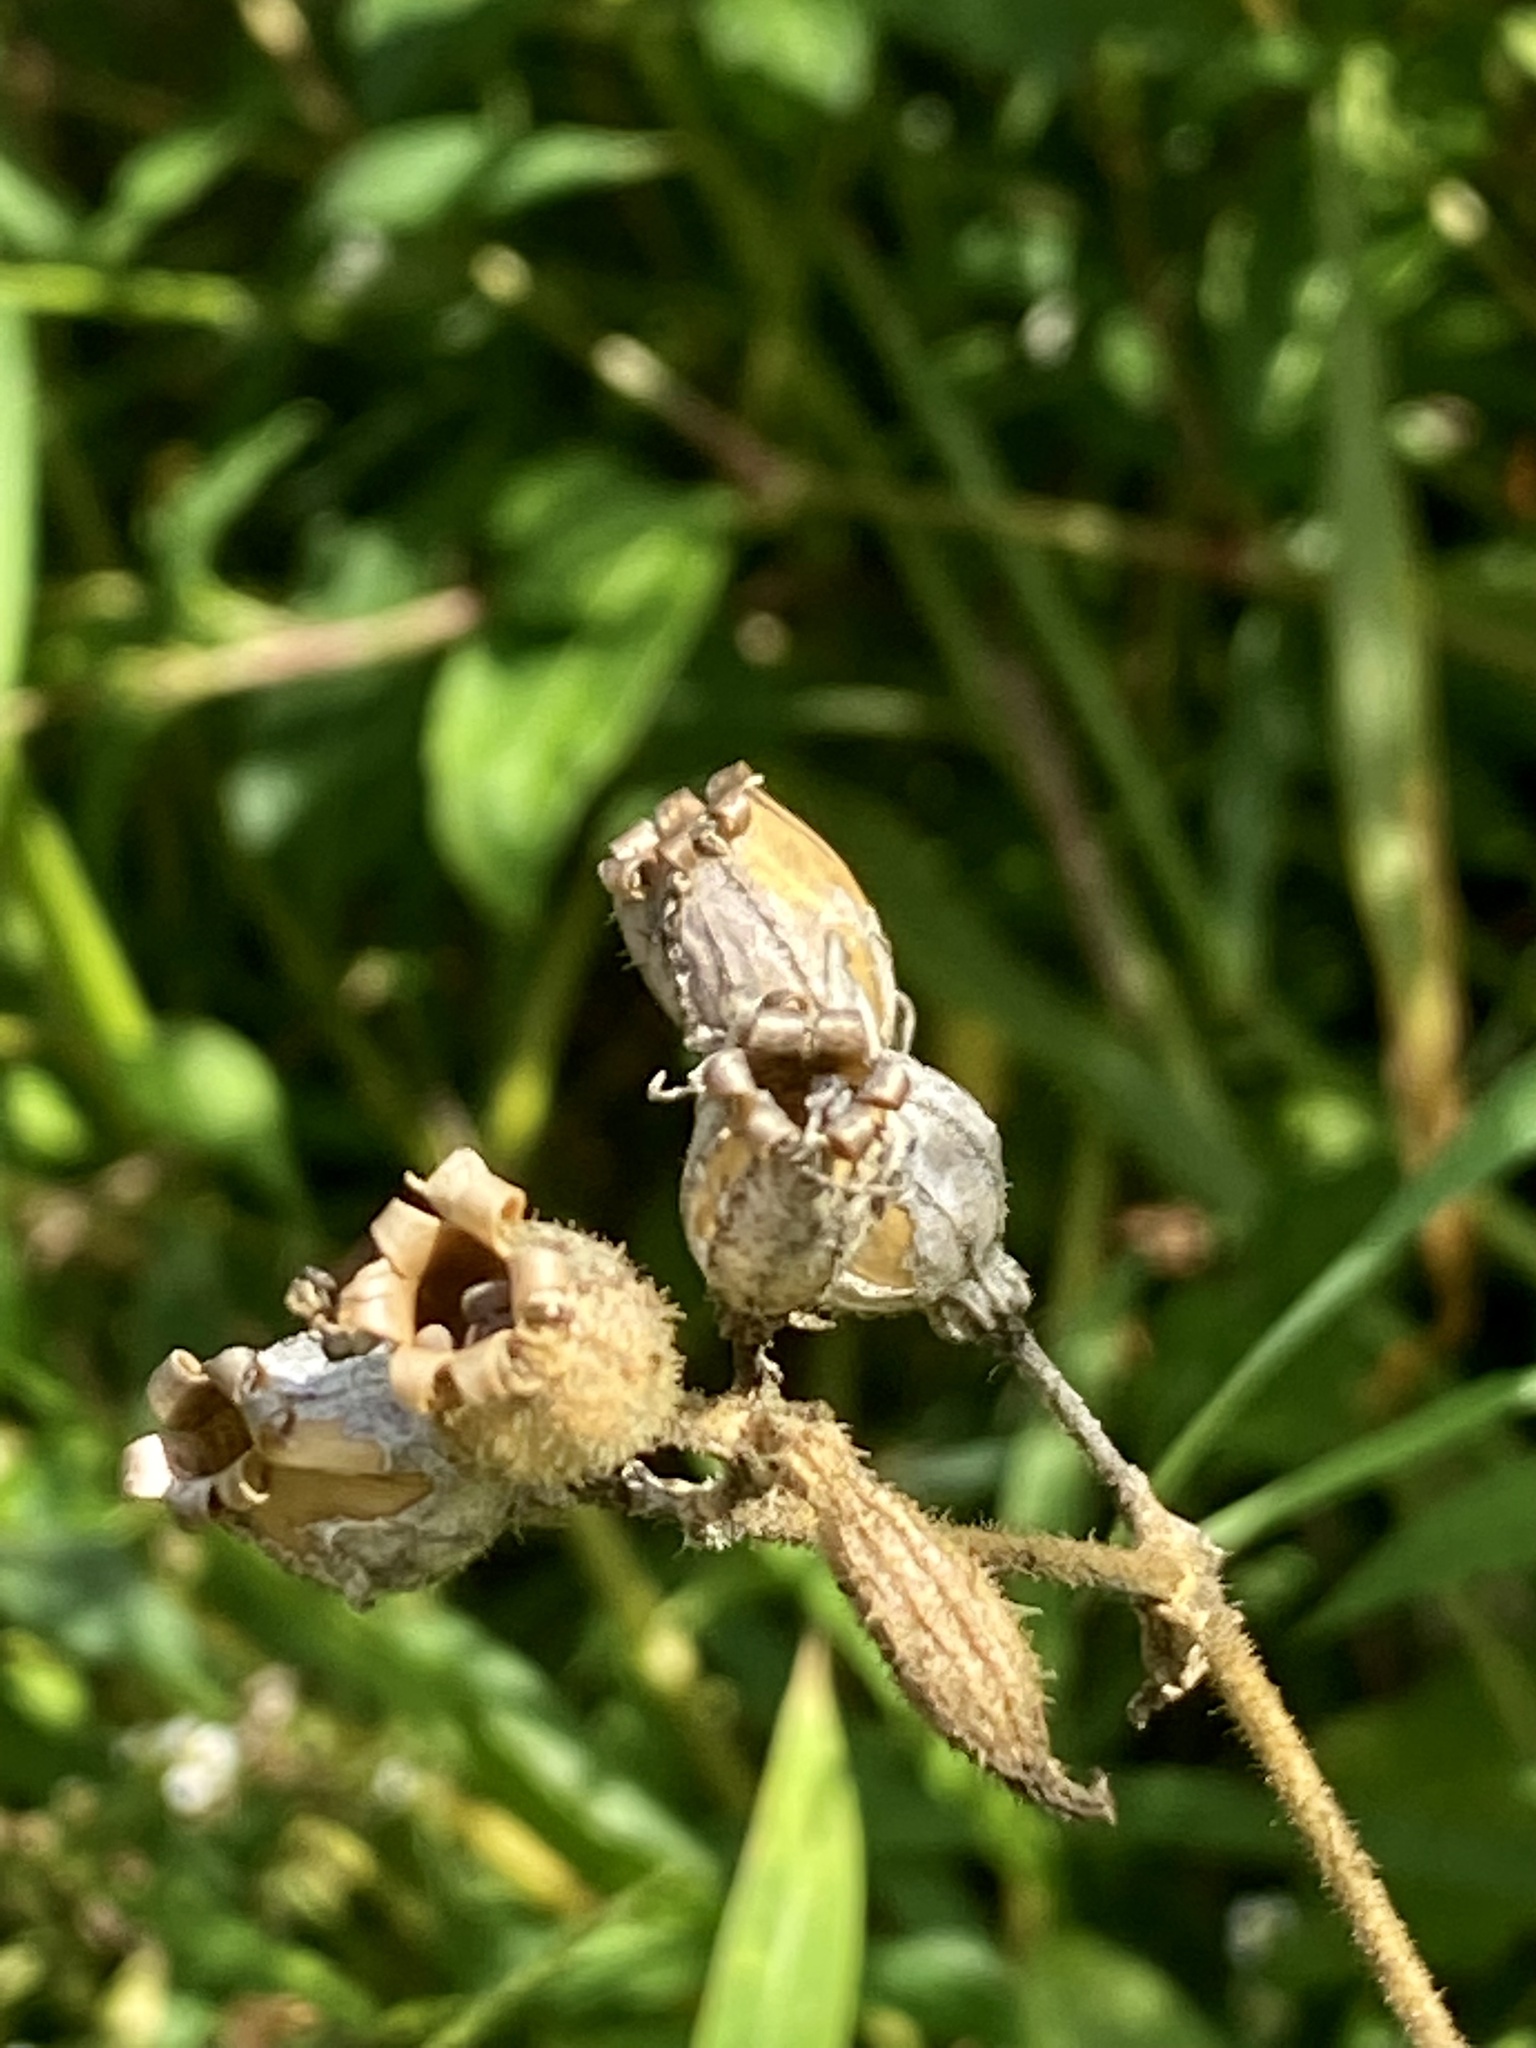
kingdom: Plantae
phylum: Tracheophyta
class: Magnoliopsida
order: Caryophyllales
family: Caryophyllaceae
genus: Silene
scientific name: Silene latifolia
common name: White campion
